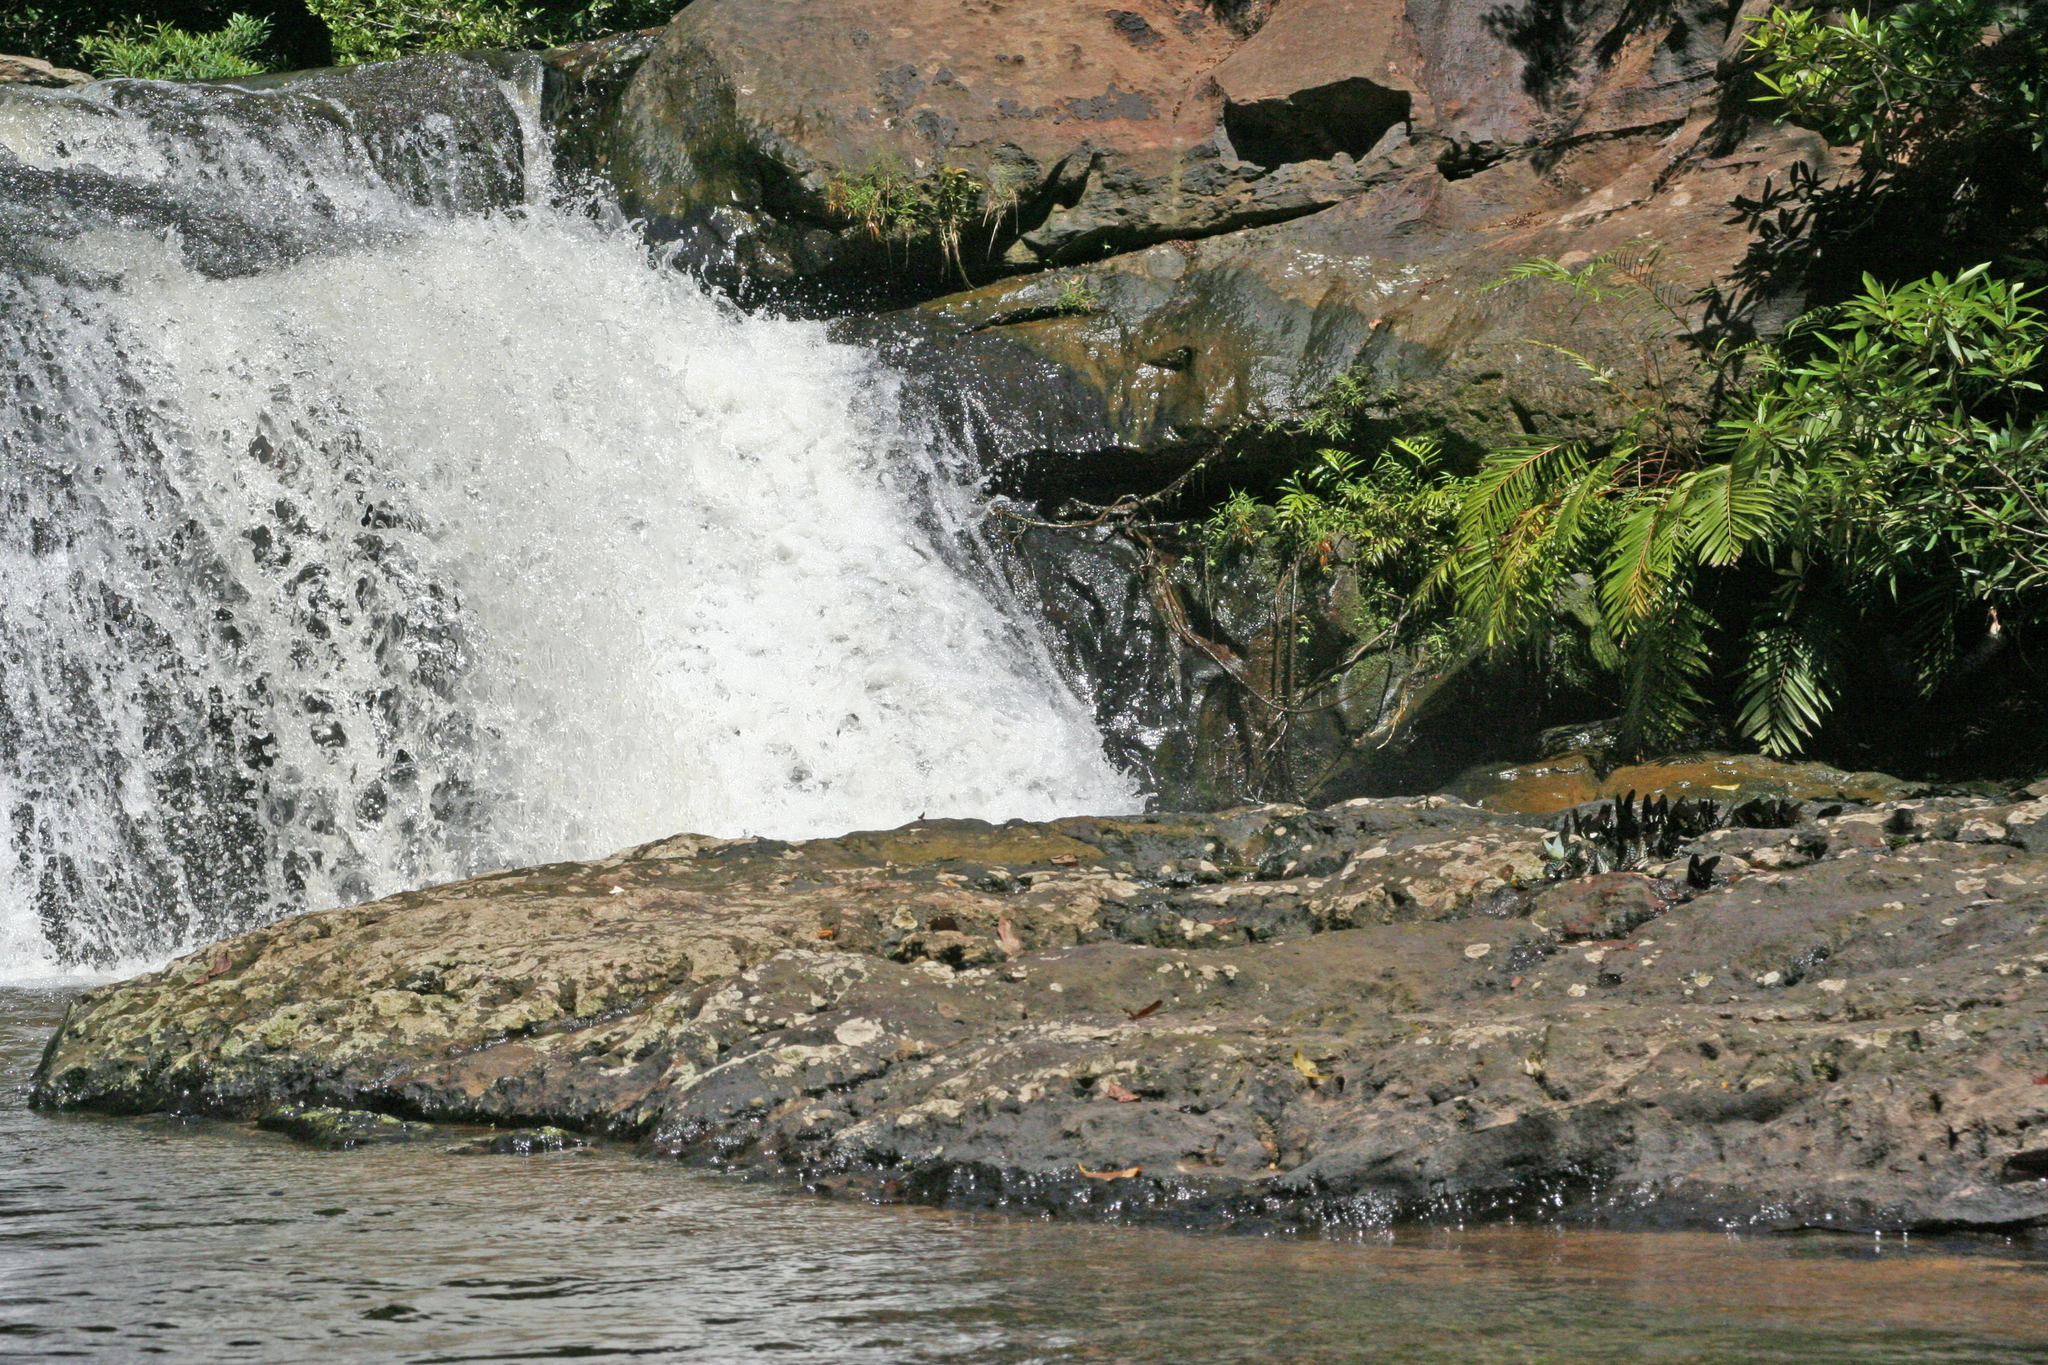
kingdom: Animalia
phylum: Arthropoda
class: Insecta
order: Lepidoptera
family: Papilionidae
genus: Atrophaneura
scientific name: Atrophaneura varuna
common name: Common batwing
